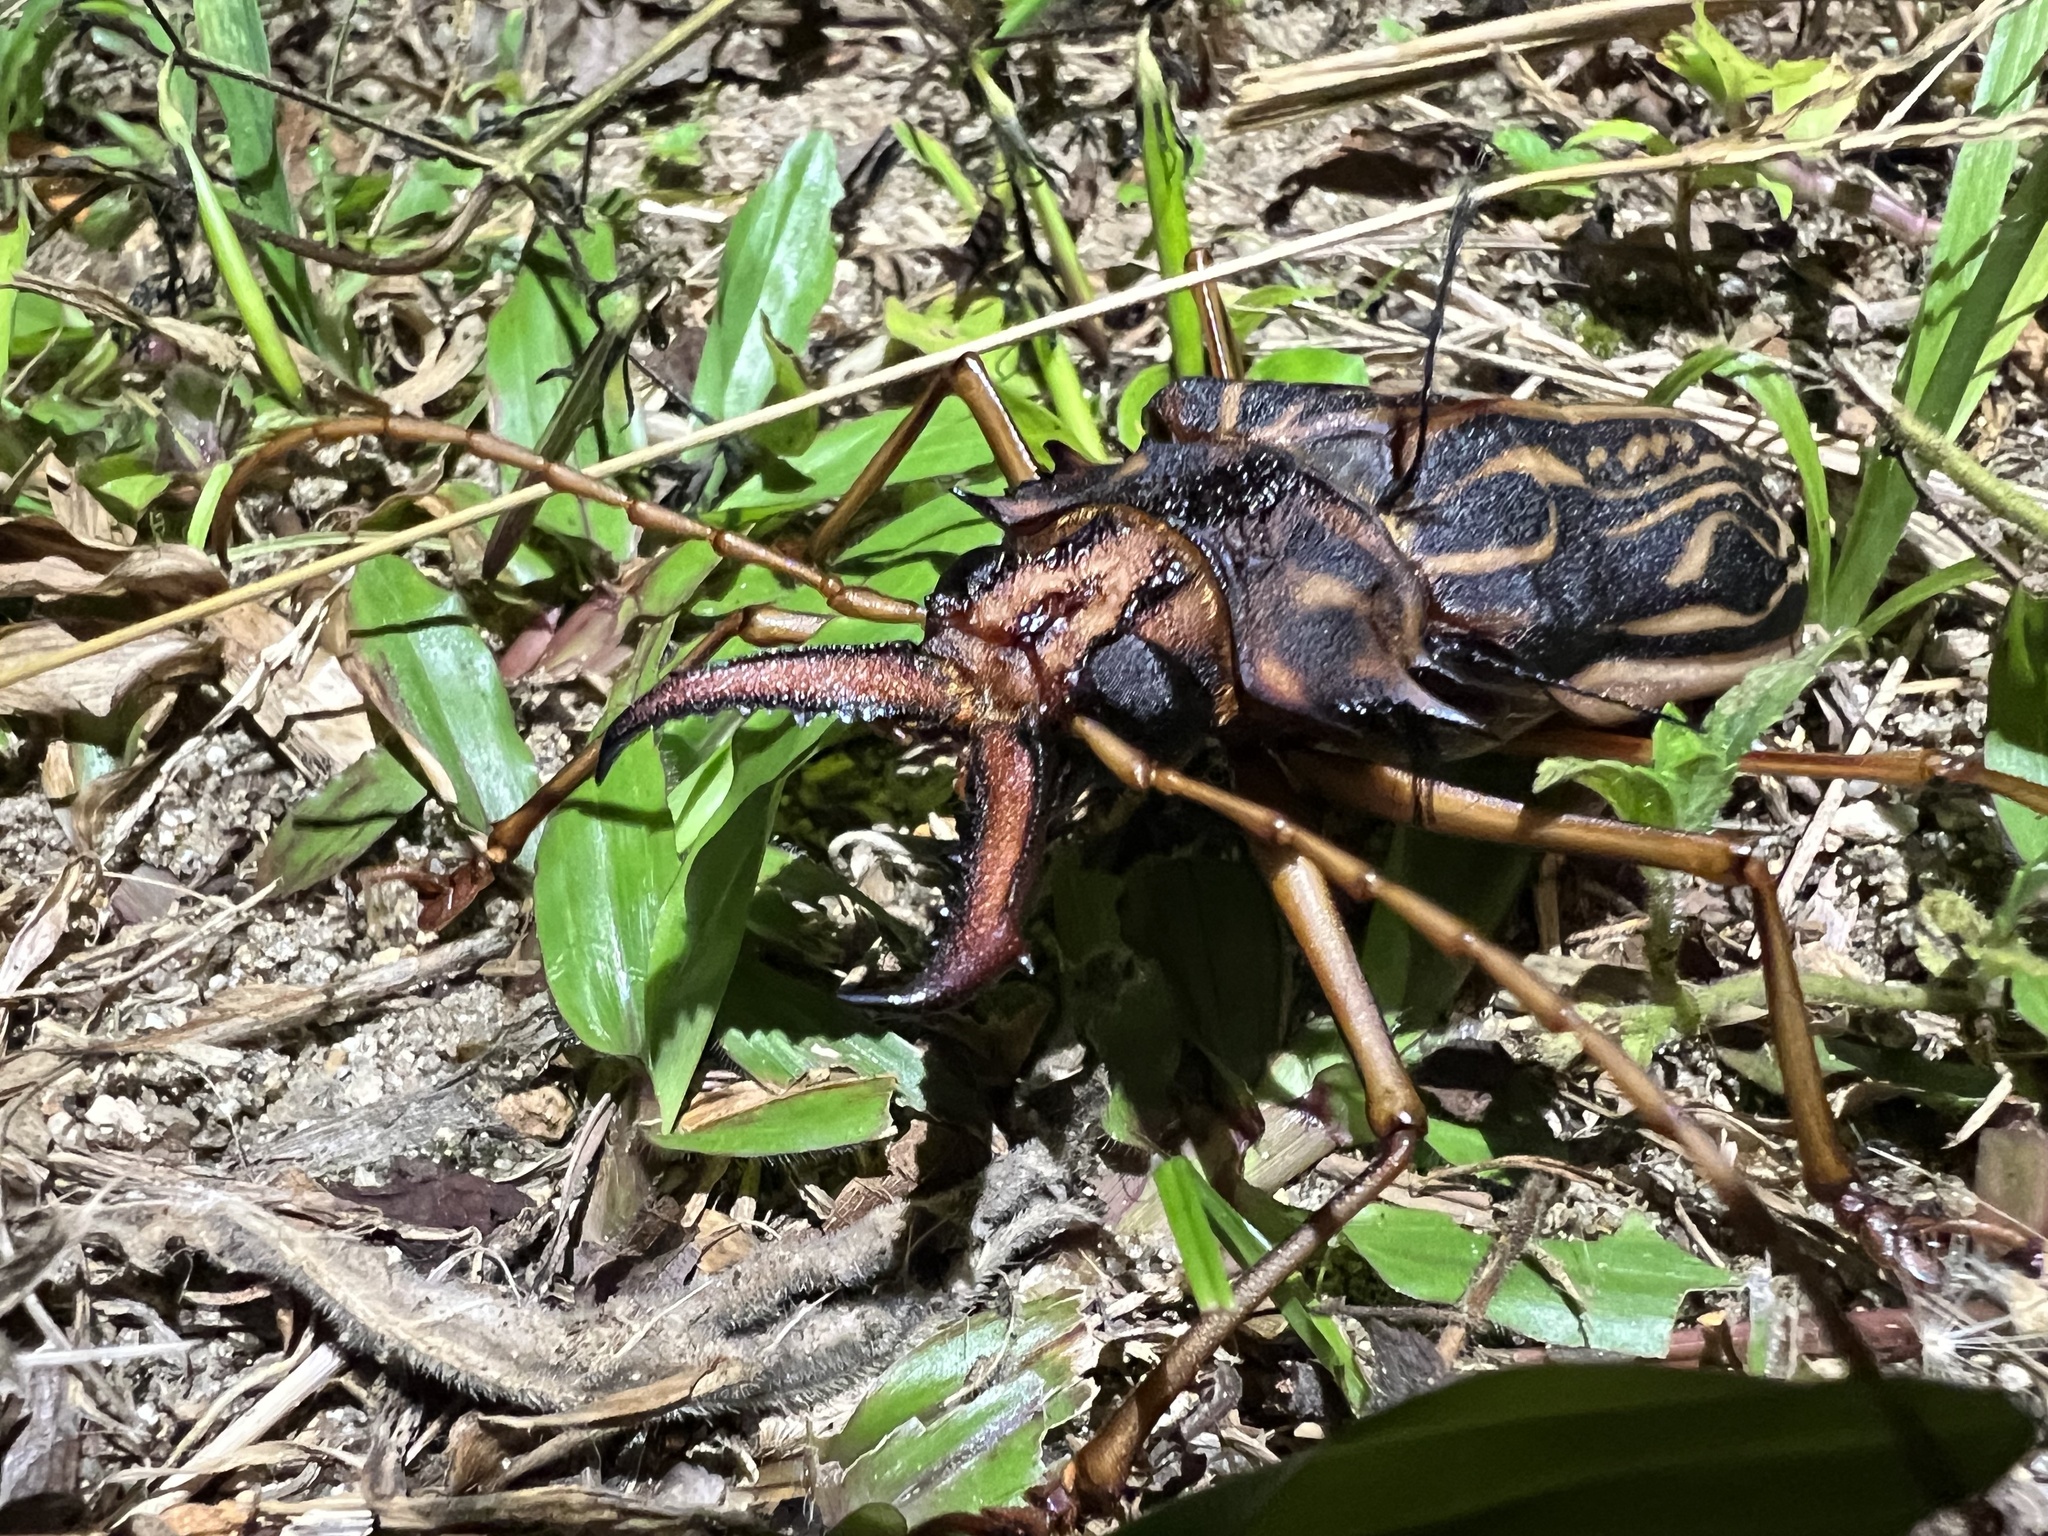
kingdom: Animalia
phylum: Arthropoda
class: Insecta
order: Coleoptera
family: Cerambycidae
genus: Macrodontia
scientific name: Macrodontia cervicornis
